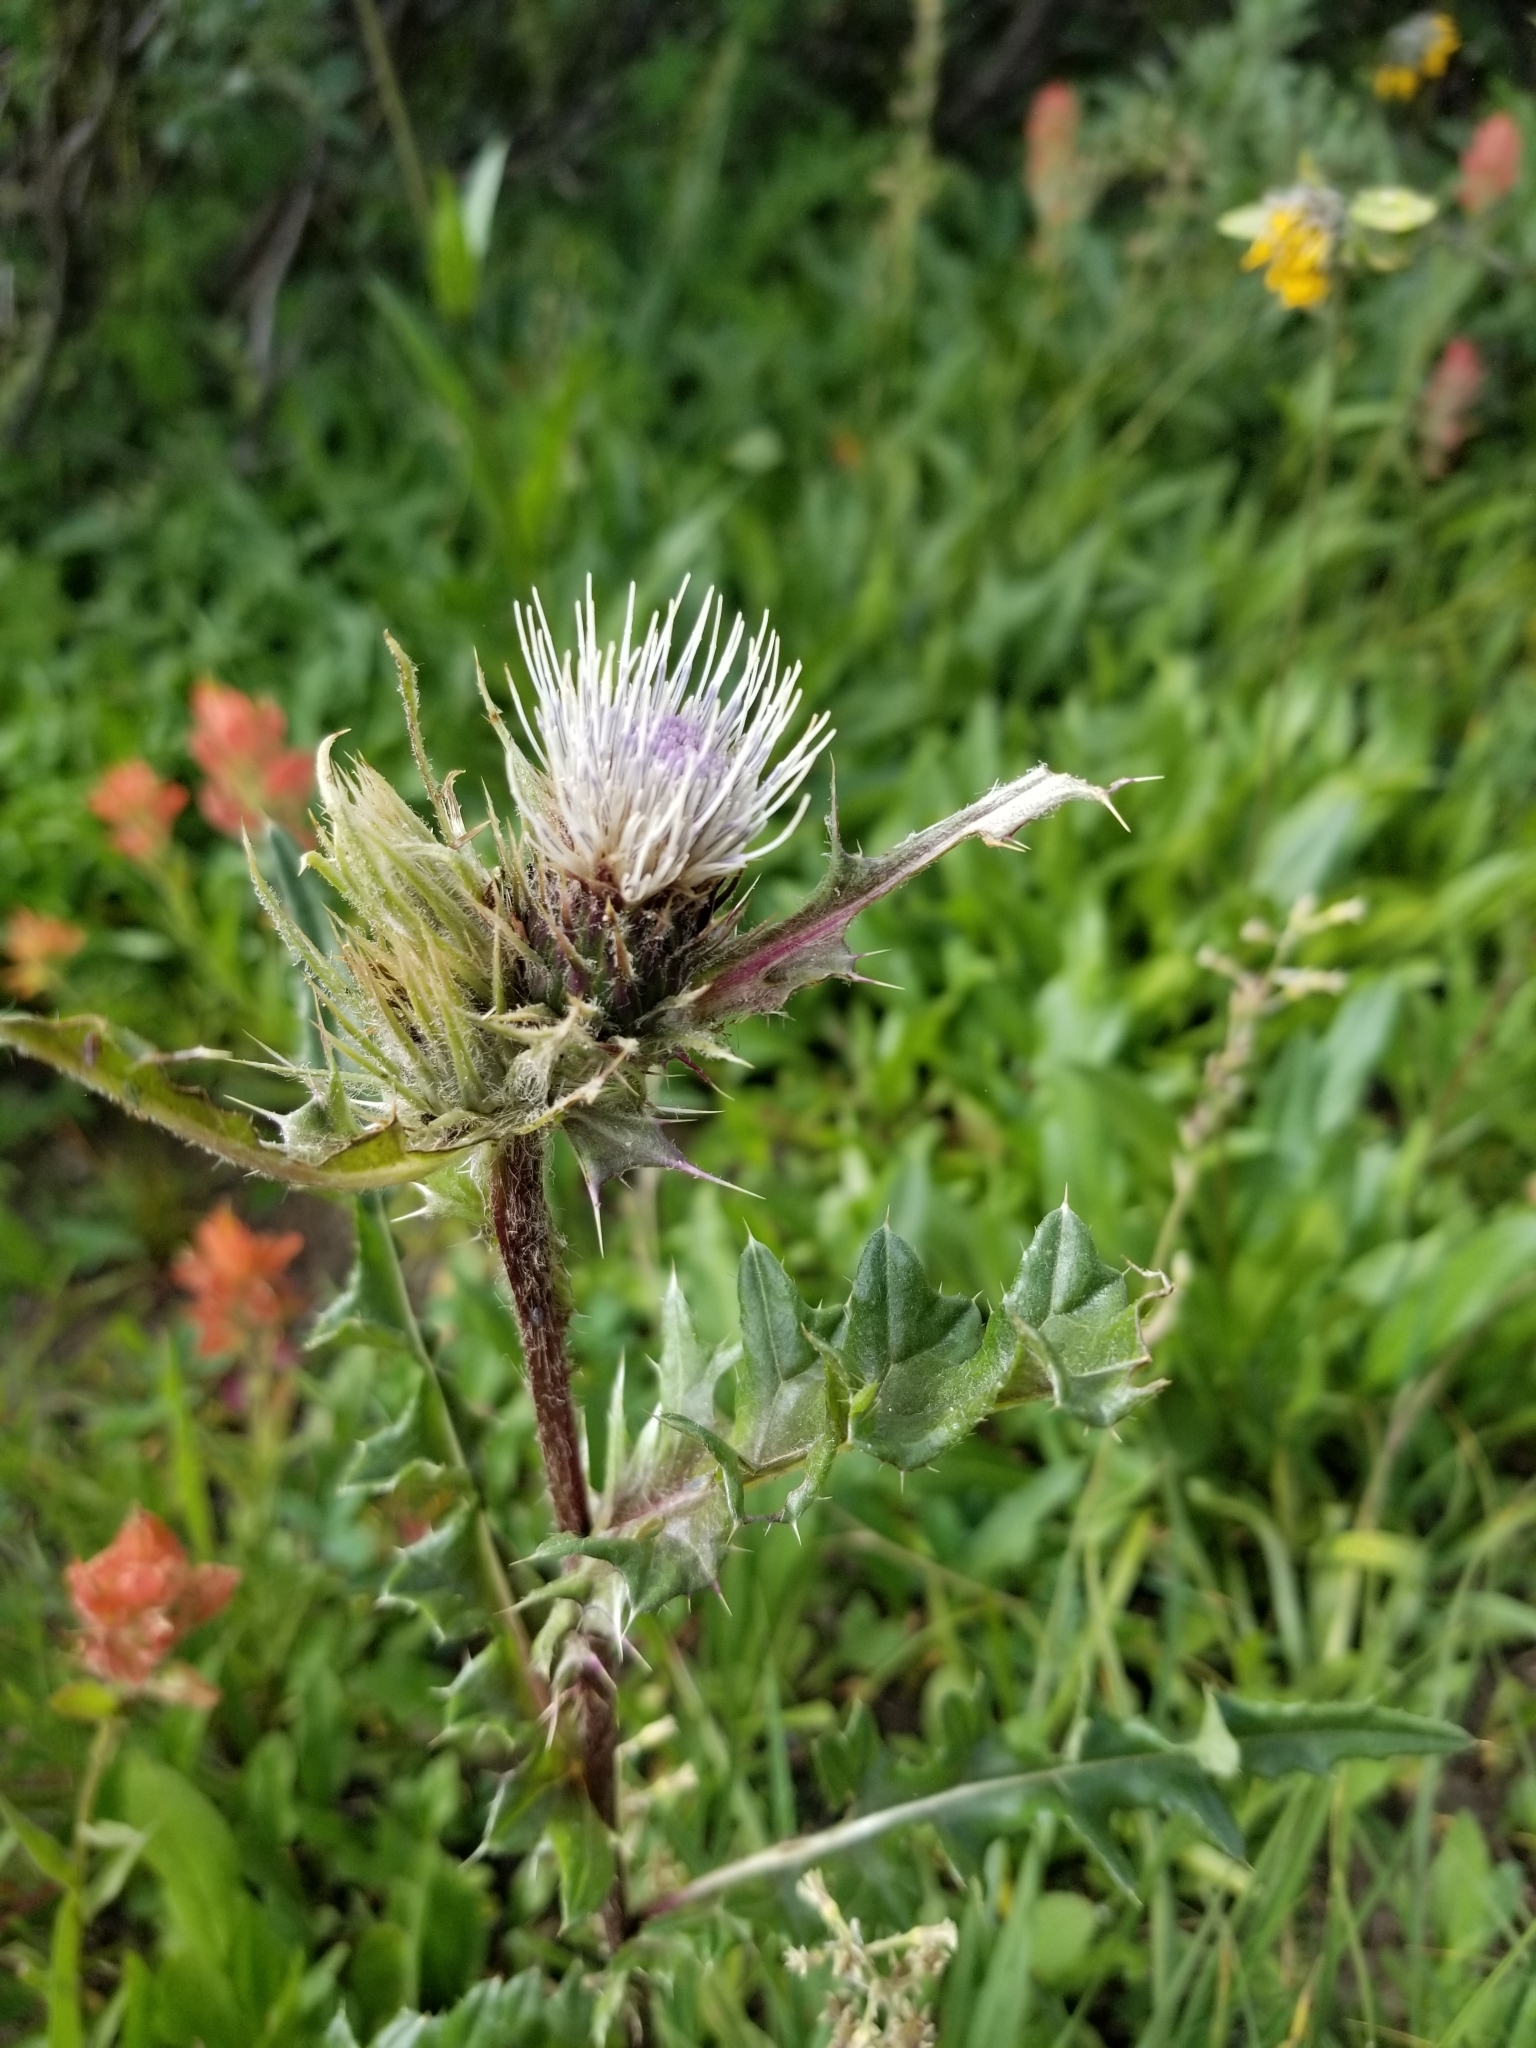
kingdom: Plantae
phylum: Tracheophyta
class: Magnoliopsida
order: Asterales
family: Asteraceae
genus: Cirsium
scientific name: Cirsium griseum
